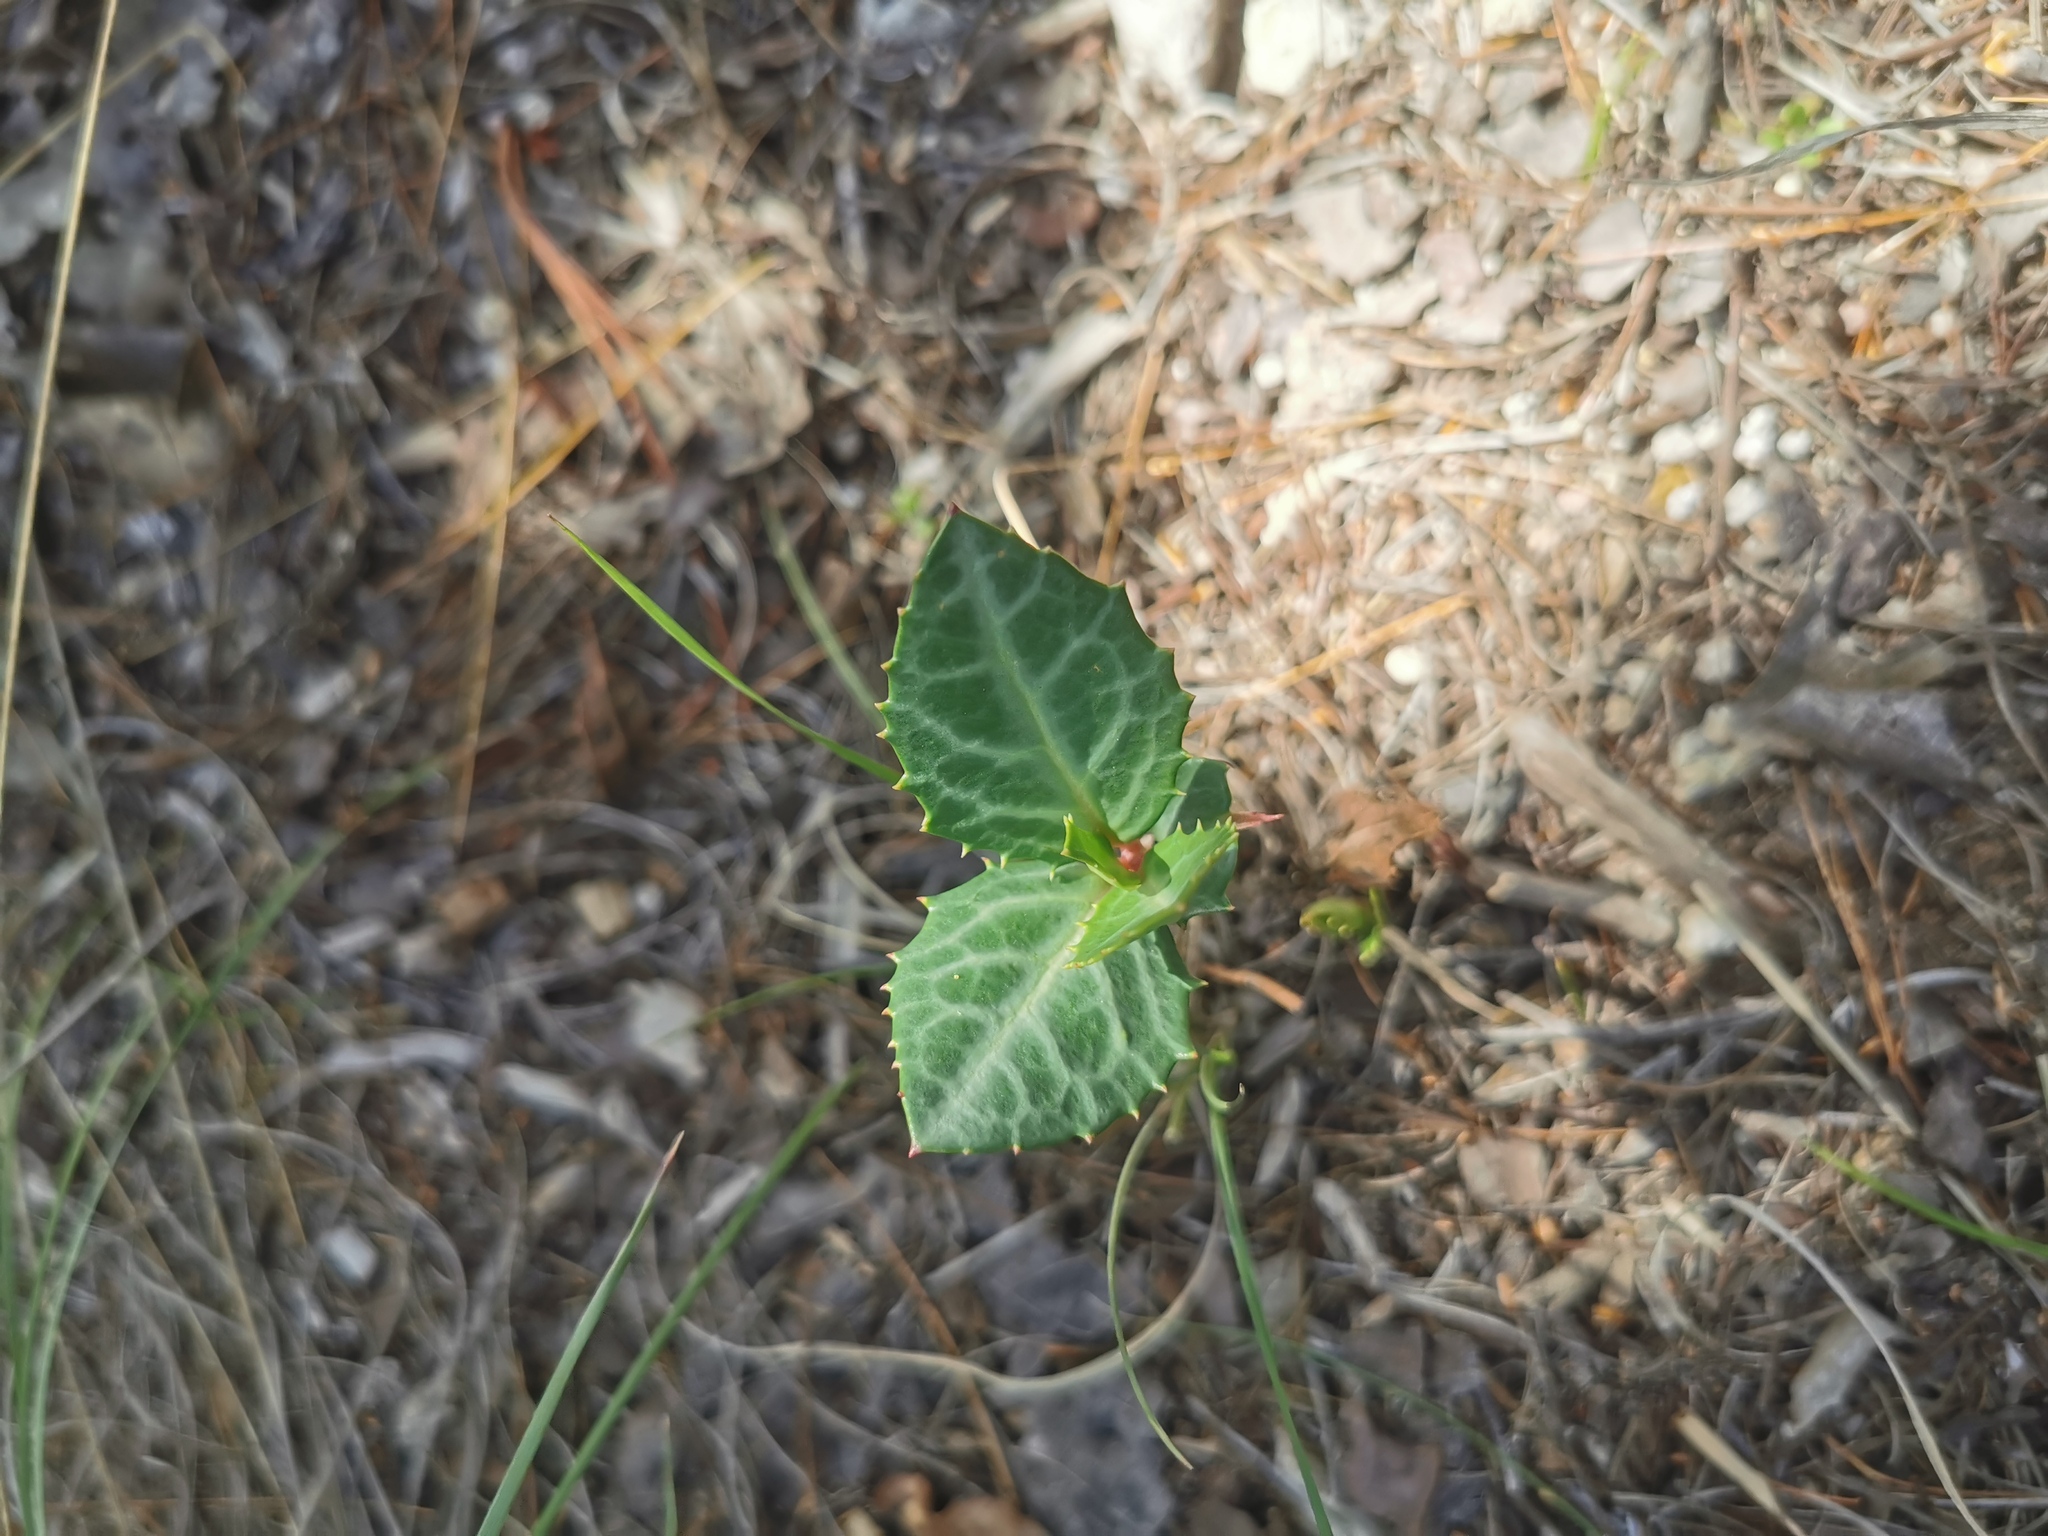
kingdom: Plantae
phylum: Tracheophyta
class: Magnoliopsida
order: Ericales
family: Ericaceae
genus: Chimaphila
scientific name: Chimaphila maculata
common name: Spotted pipsissewa
